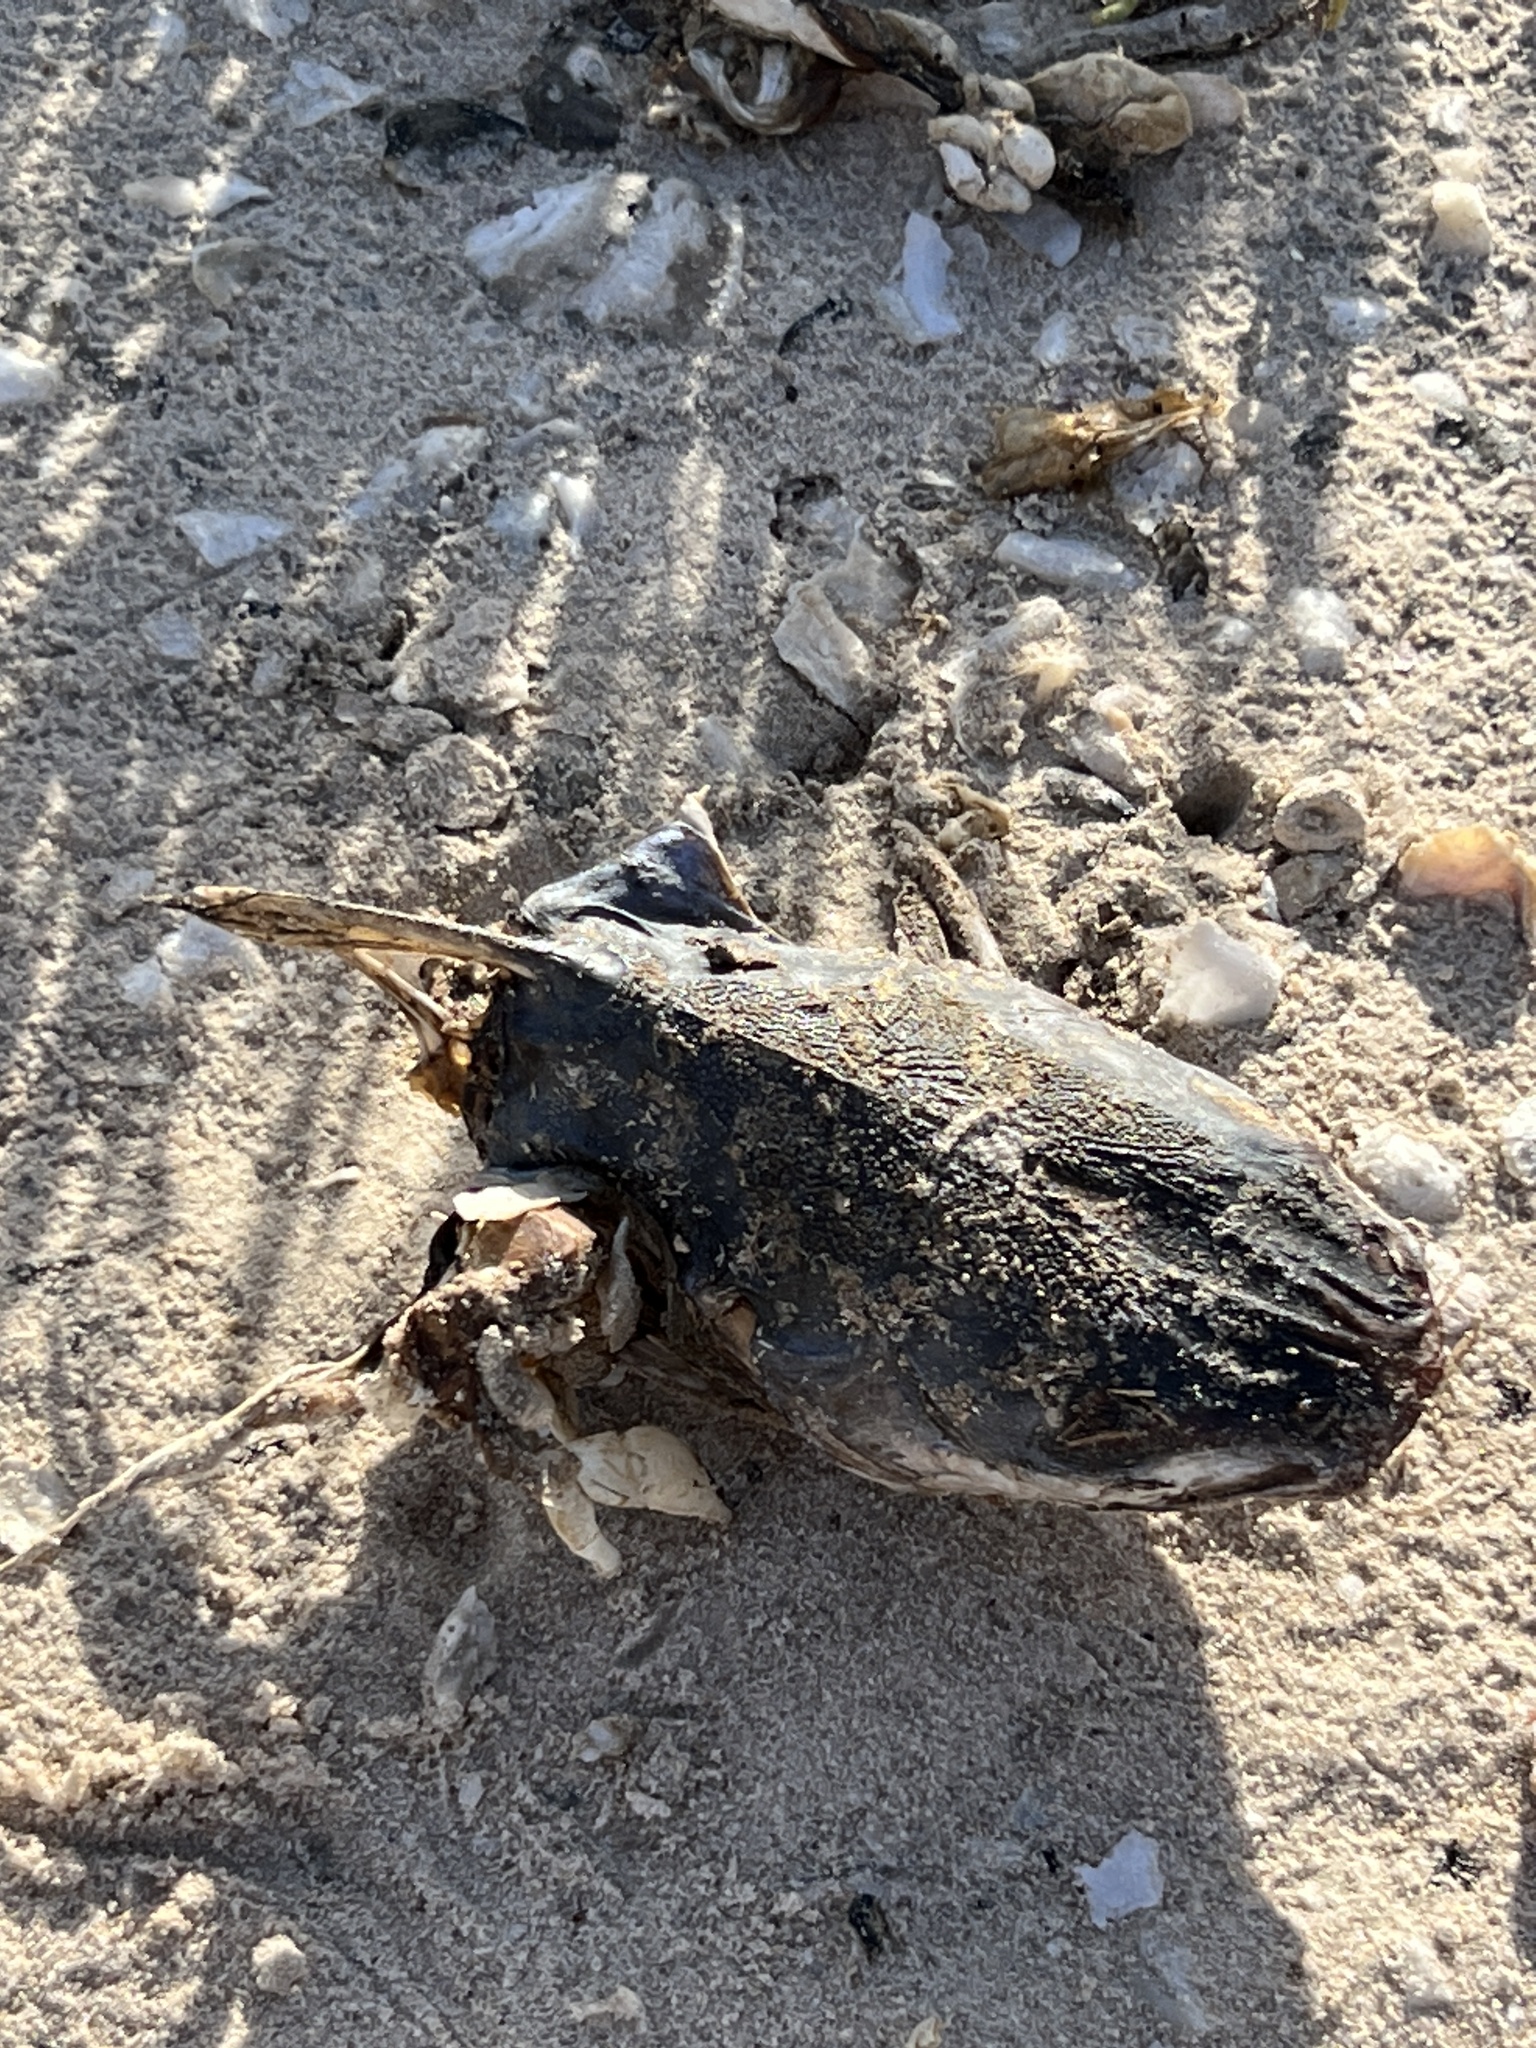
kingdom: Animalia
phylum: Chordata
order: Siluriformes
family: Ariidae
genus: Ariopsis
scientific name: Ariopsis felis
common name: Hardhead catfish
